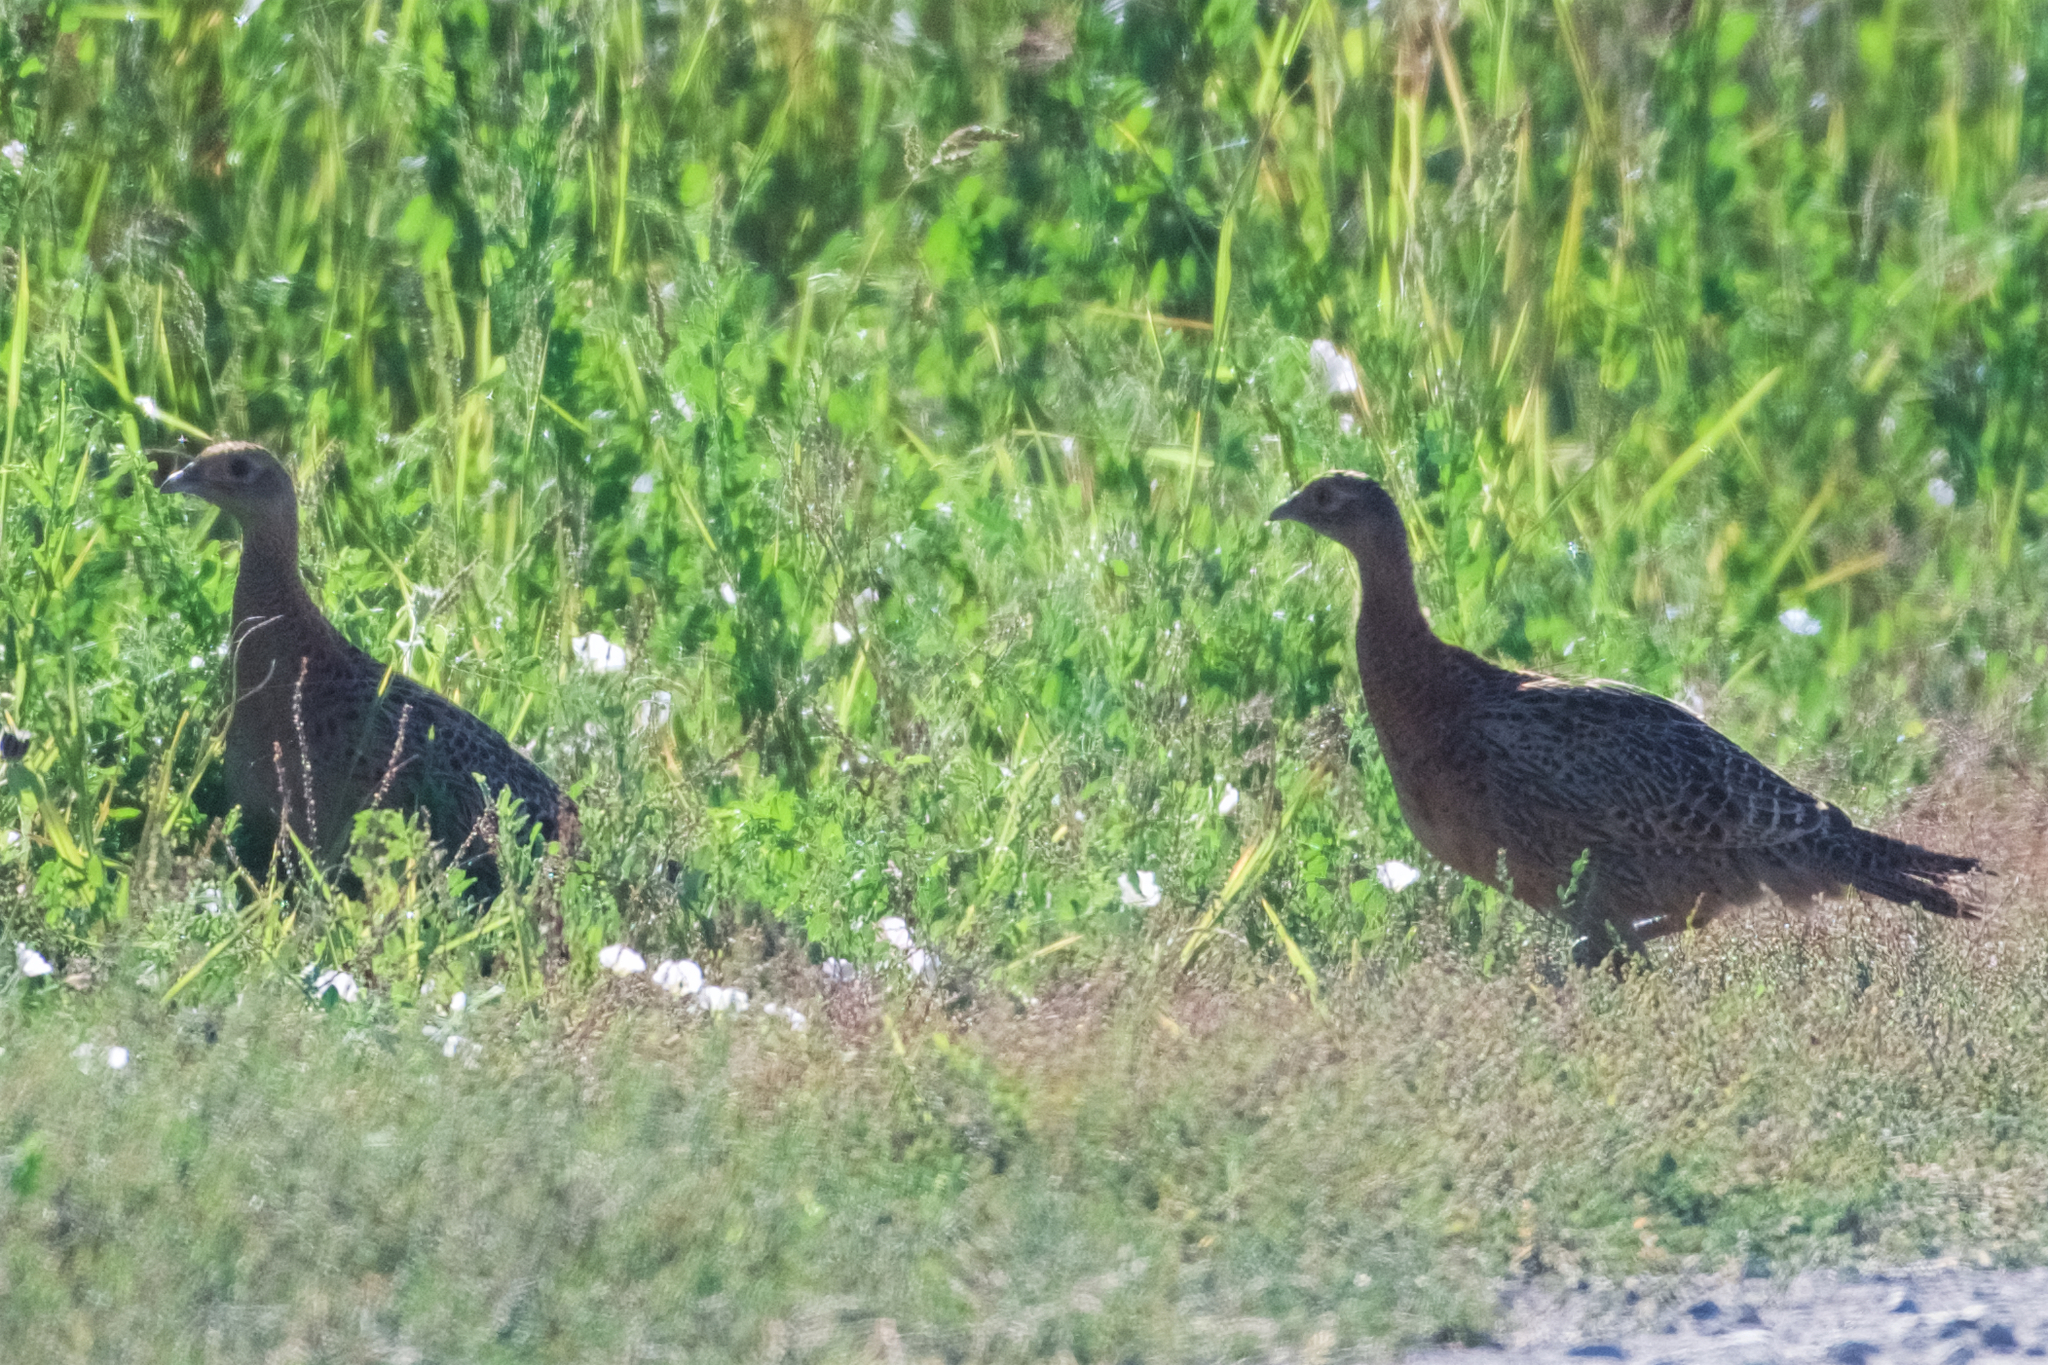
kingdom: Animalia
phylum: Chordata
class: Aves
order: Galliformes
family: Phasianidae
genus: Phasianus
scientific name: Phasianus colchicus
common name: Common pheasant
